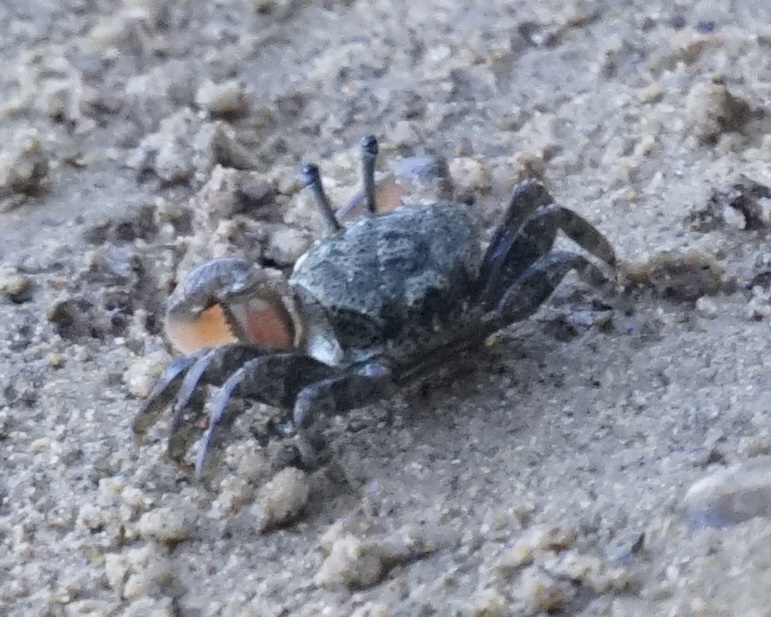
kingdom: Animalia
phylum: Arthropoda
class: Malacostraca
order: Decapoda
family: Heloeciidae
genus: Heloecius
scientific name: Heloecius cordiformis
